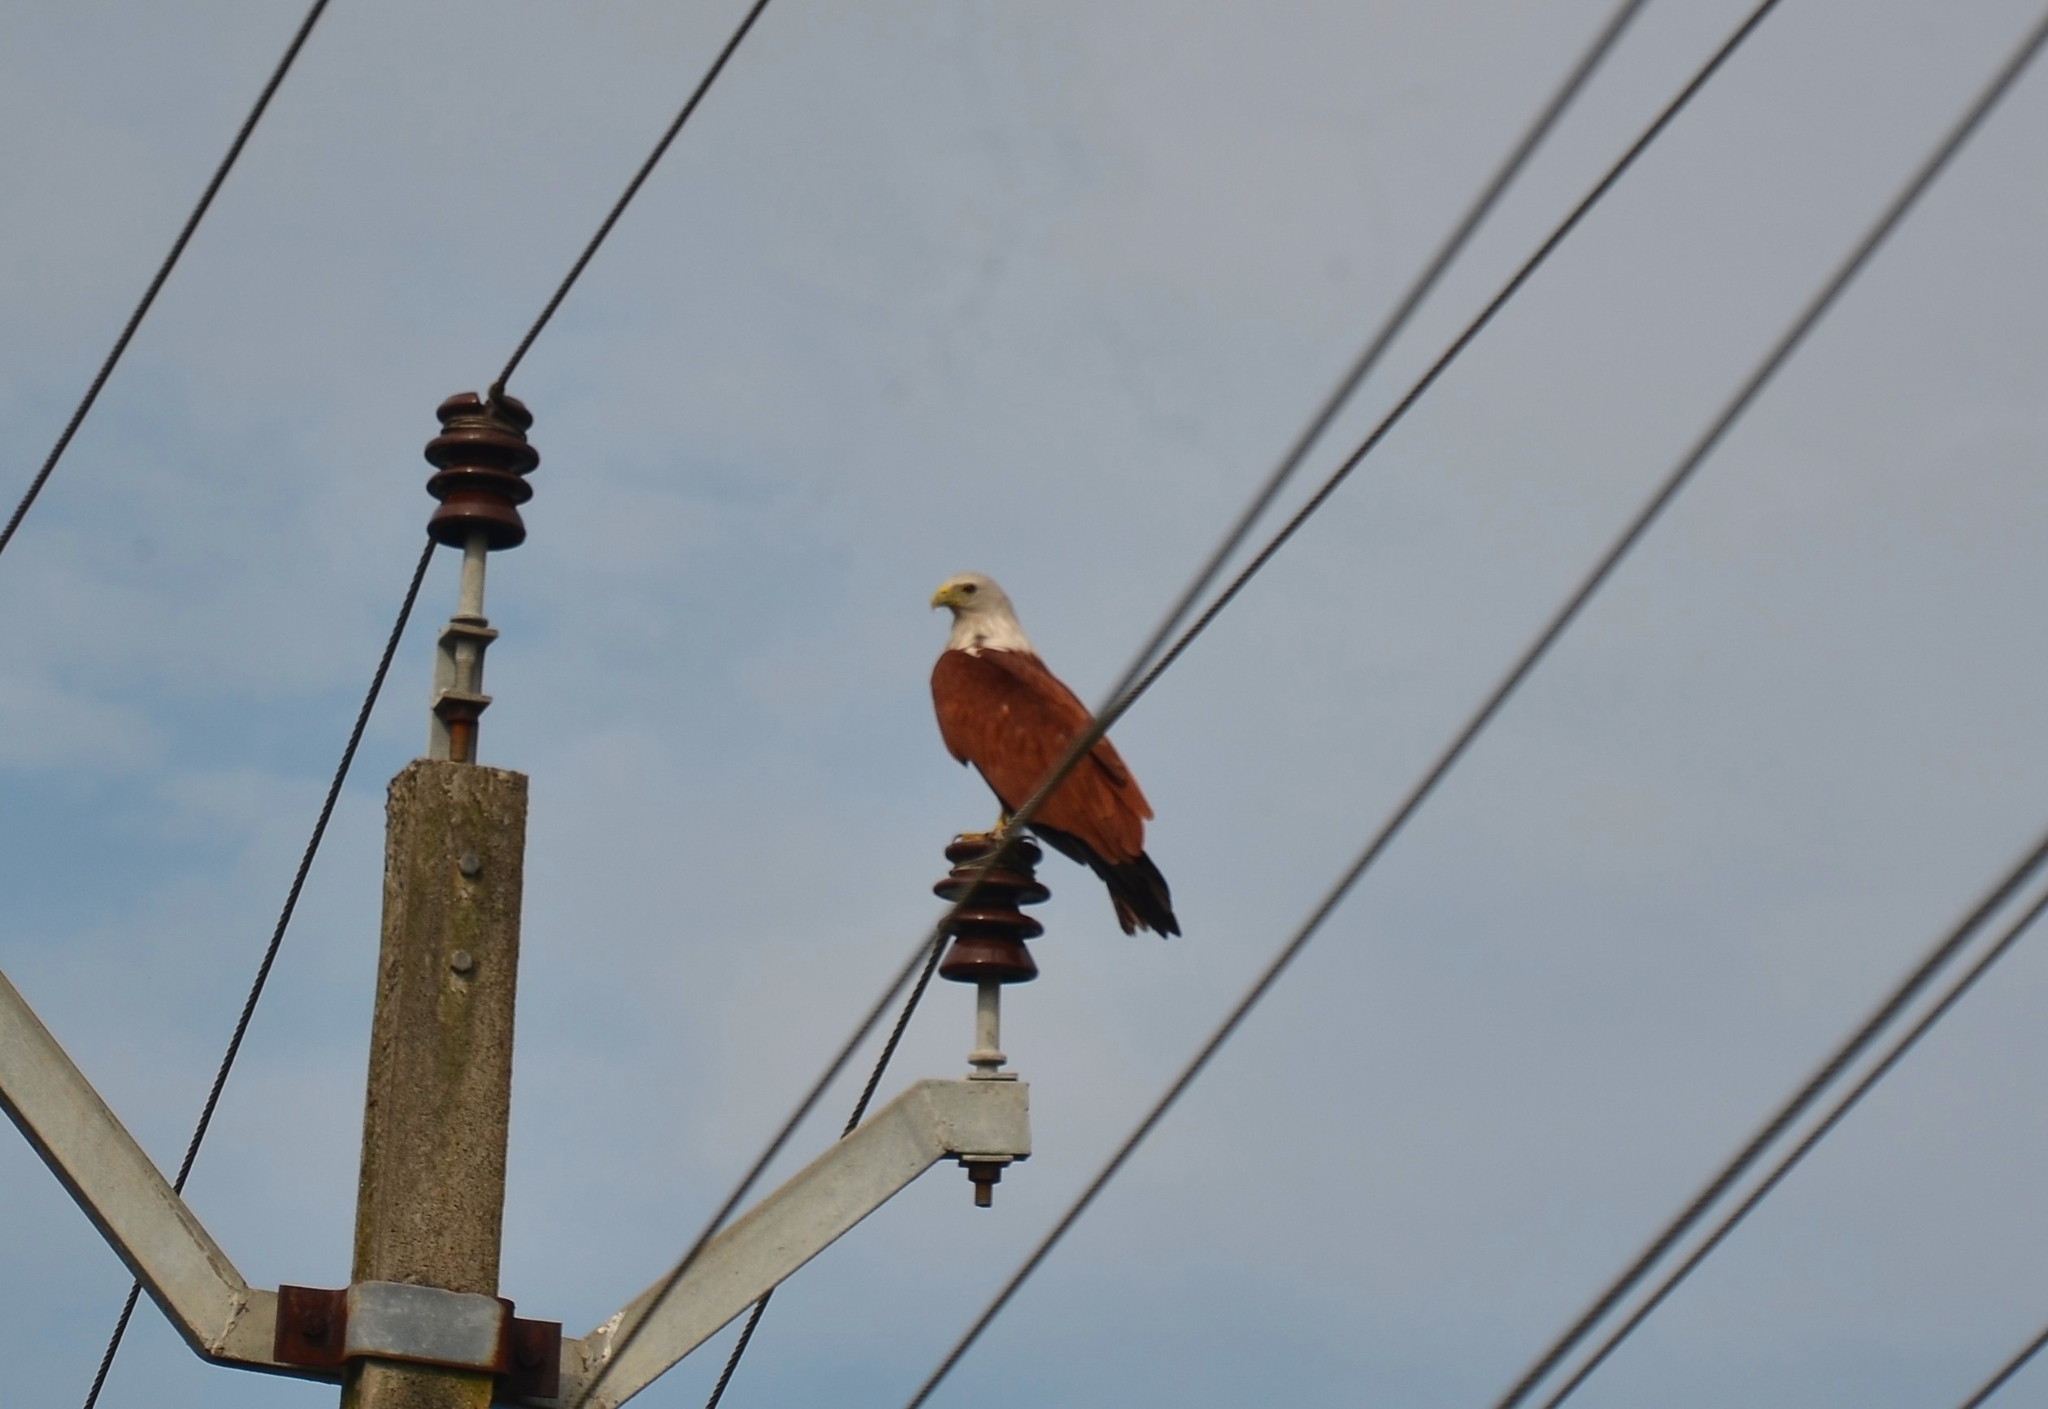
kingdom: Animalia
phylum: Chordata
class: Aves
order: Accipitriformes
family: Accipitridae
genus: Haliastur
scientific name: Haliastur indus
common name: Brahminy kite
